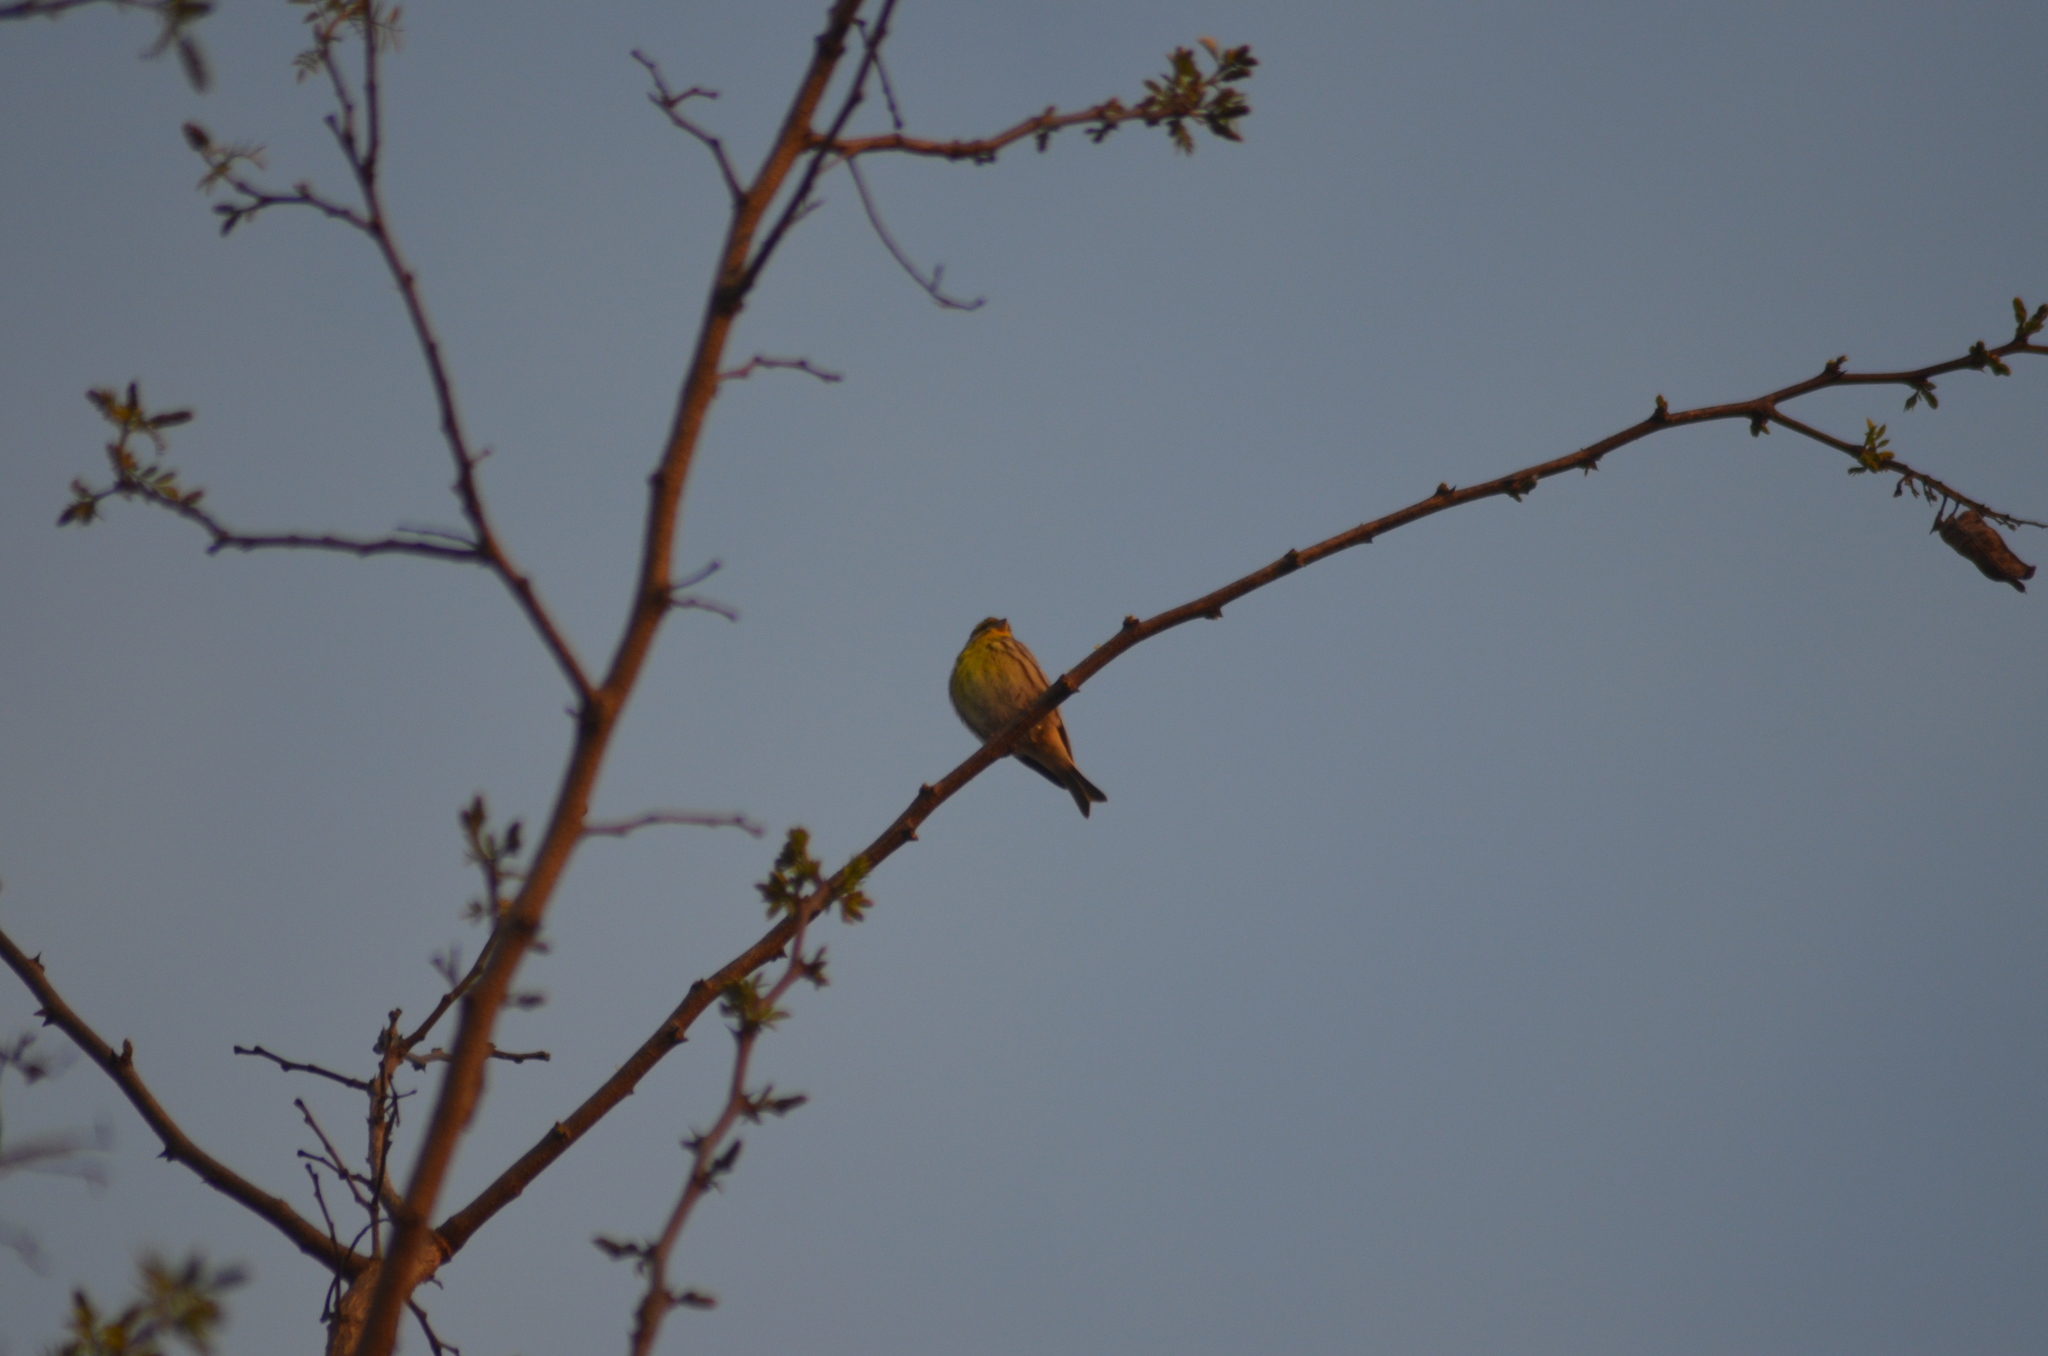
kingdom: Animalia
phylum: Chordata
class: Aves
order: Passeriformes
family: Fringillidae
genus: Serinus
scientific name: Serinus serinus
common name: European serin
